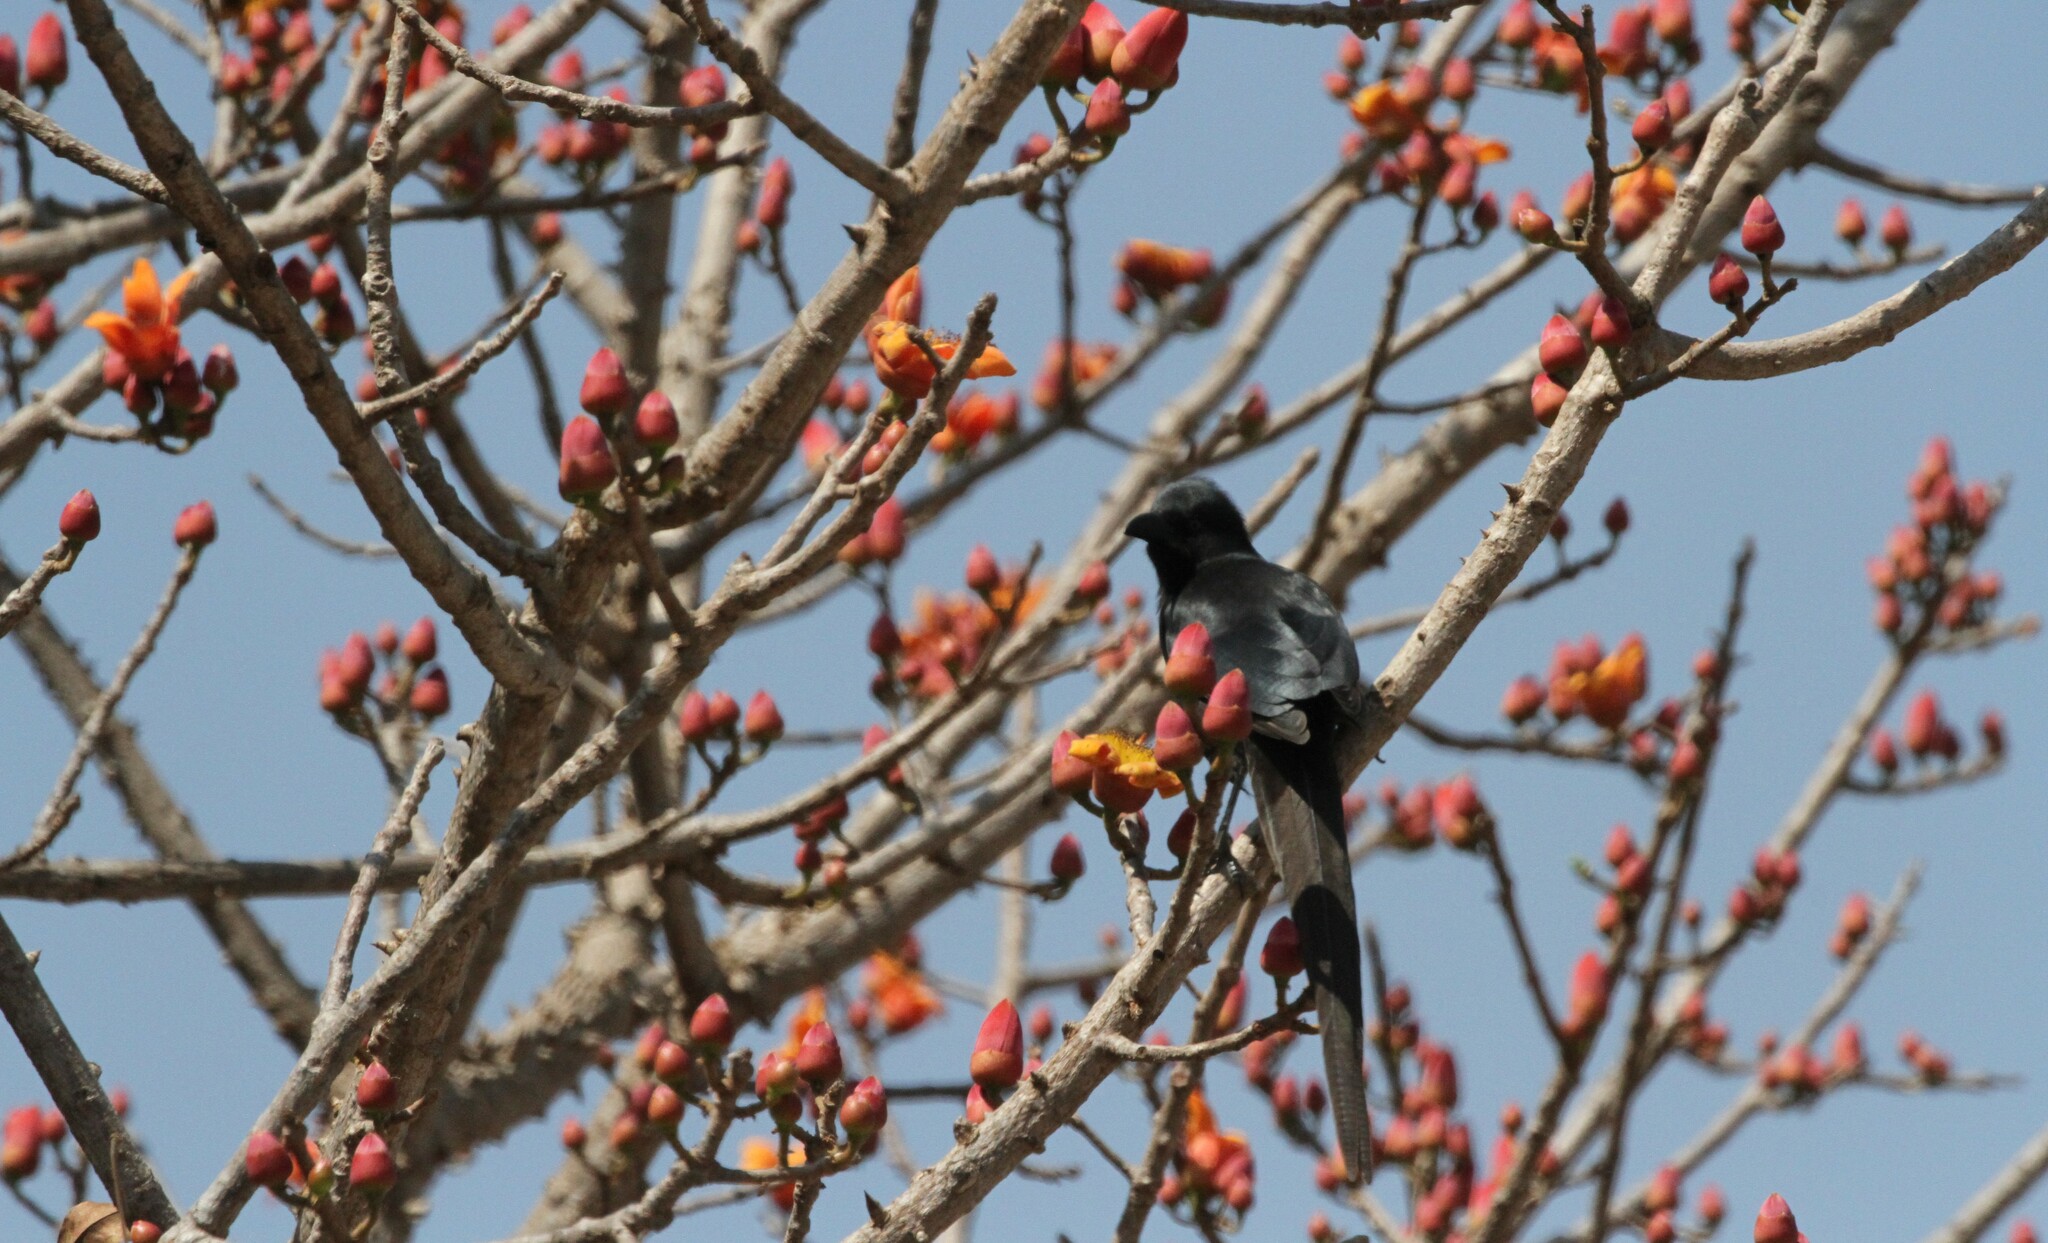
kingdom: Animalia
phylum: Chordata
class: Aves
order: Passeriformes
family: Corvidae
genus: Ptilostomus
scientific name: Ptilostomus afer
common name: Piapiac
